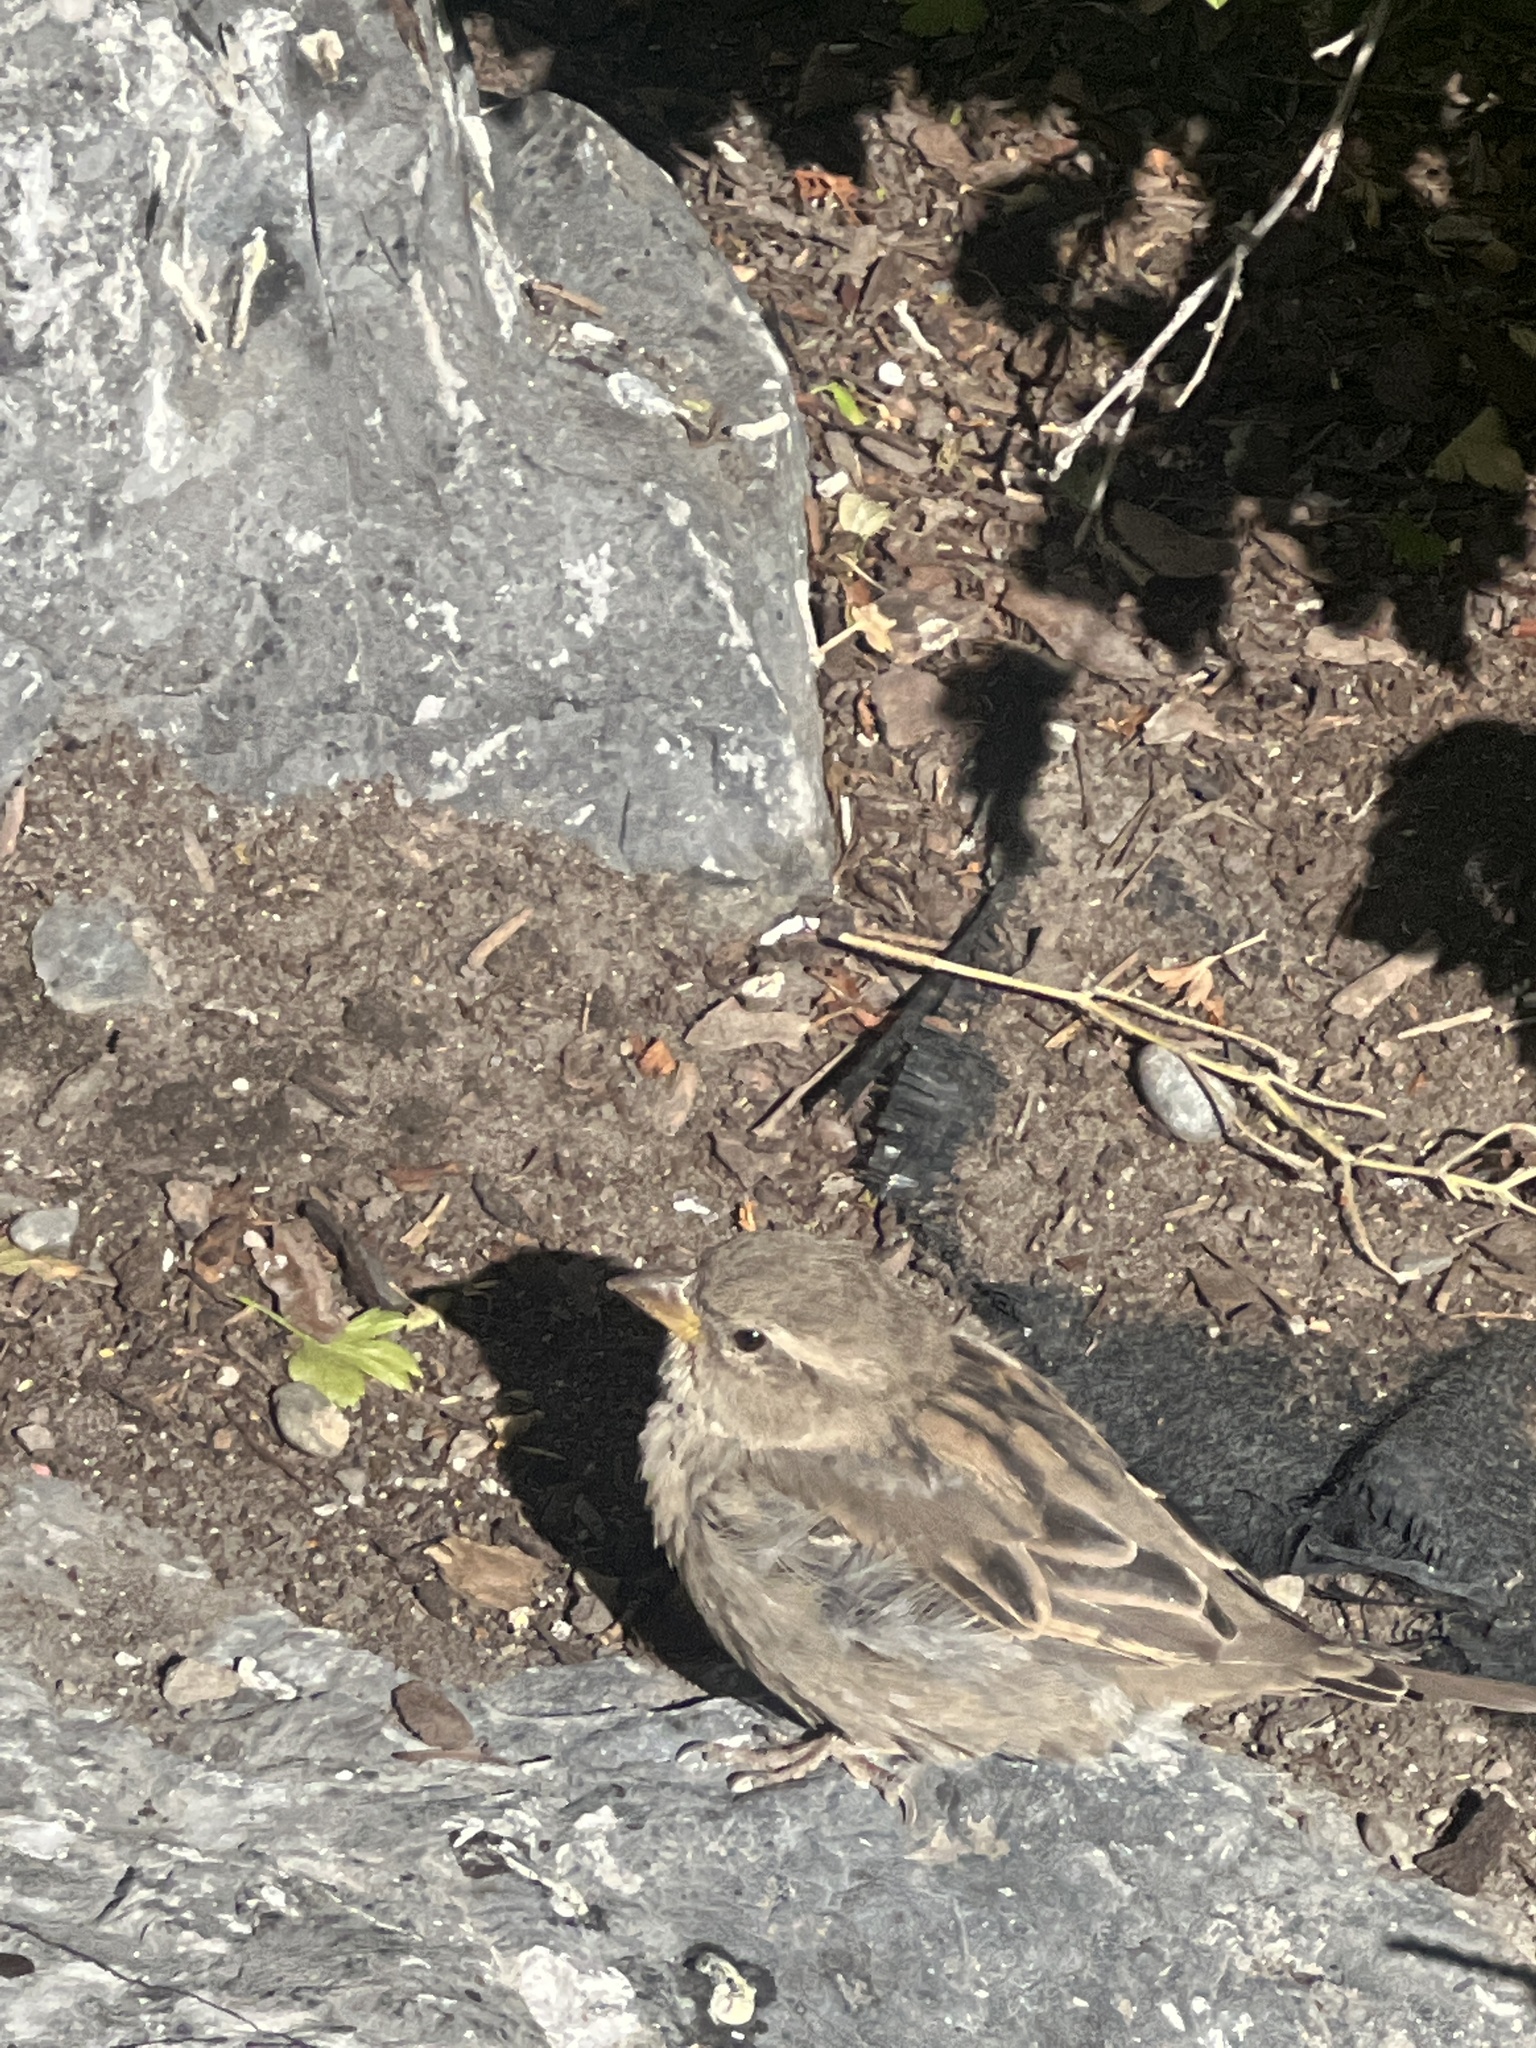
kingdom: Animalia
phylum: Chordata
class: Aves
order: Passeriformes
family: Passeridae
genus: Passer
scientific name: Passer domesticus
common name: House sparrow
